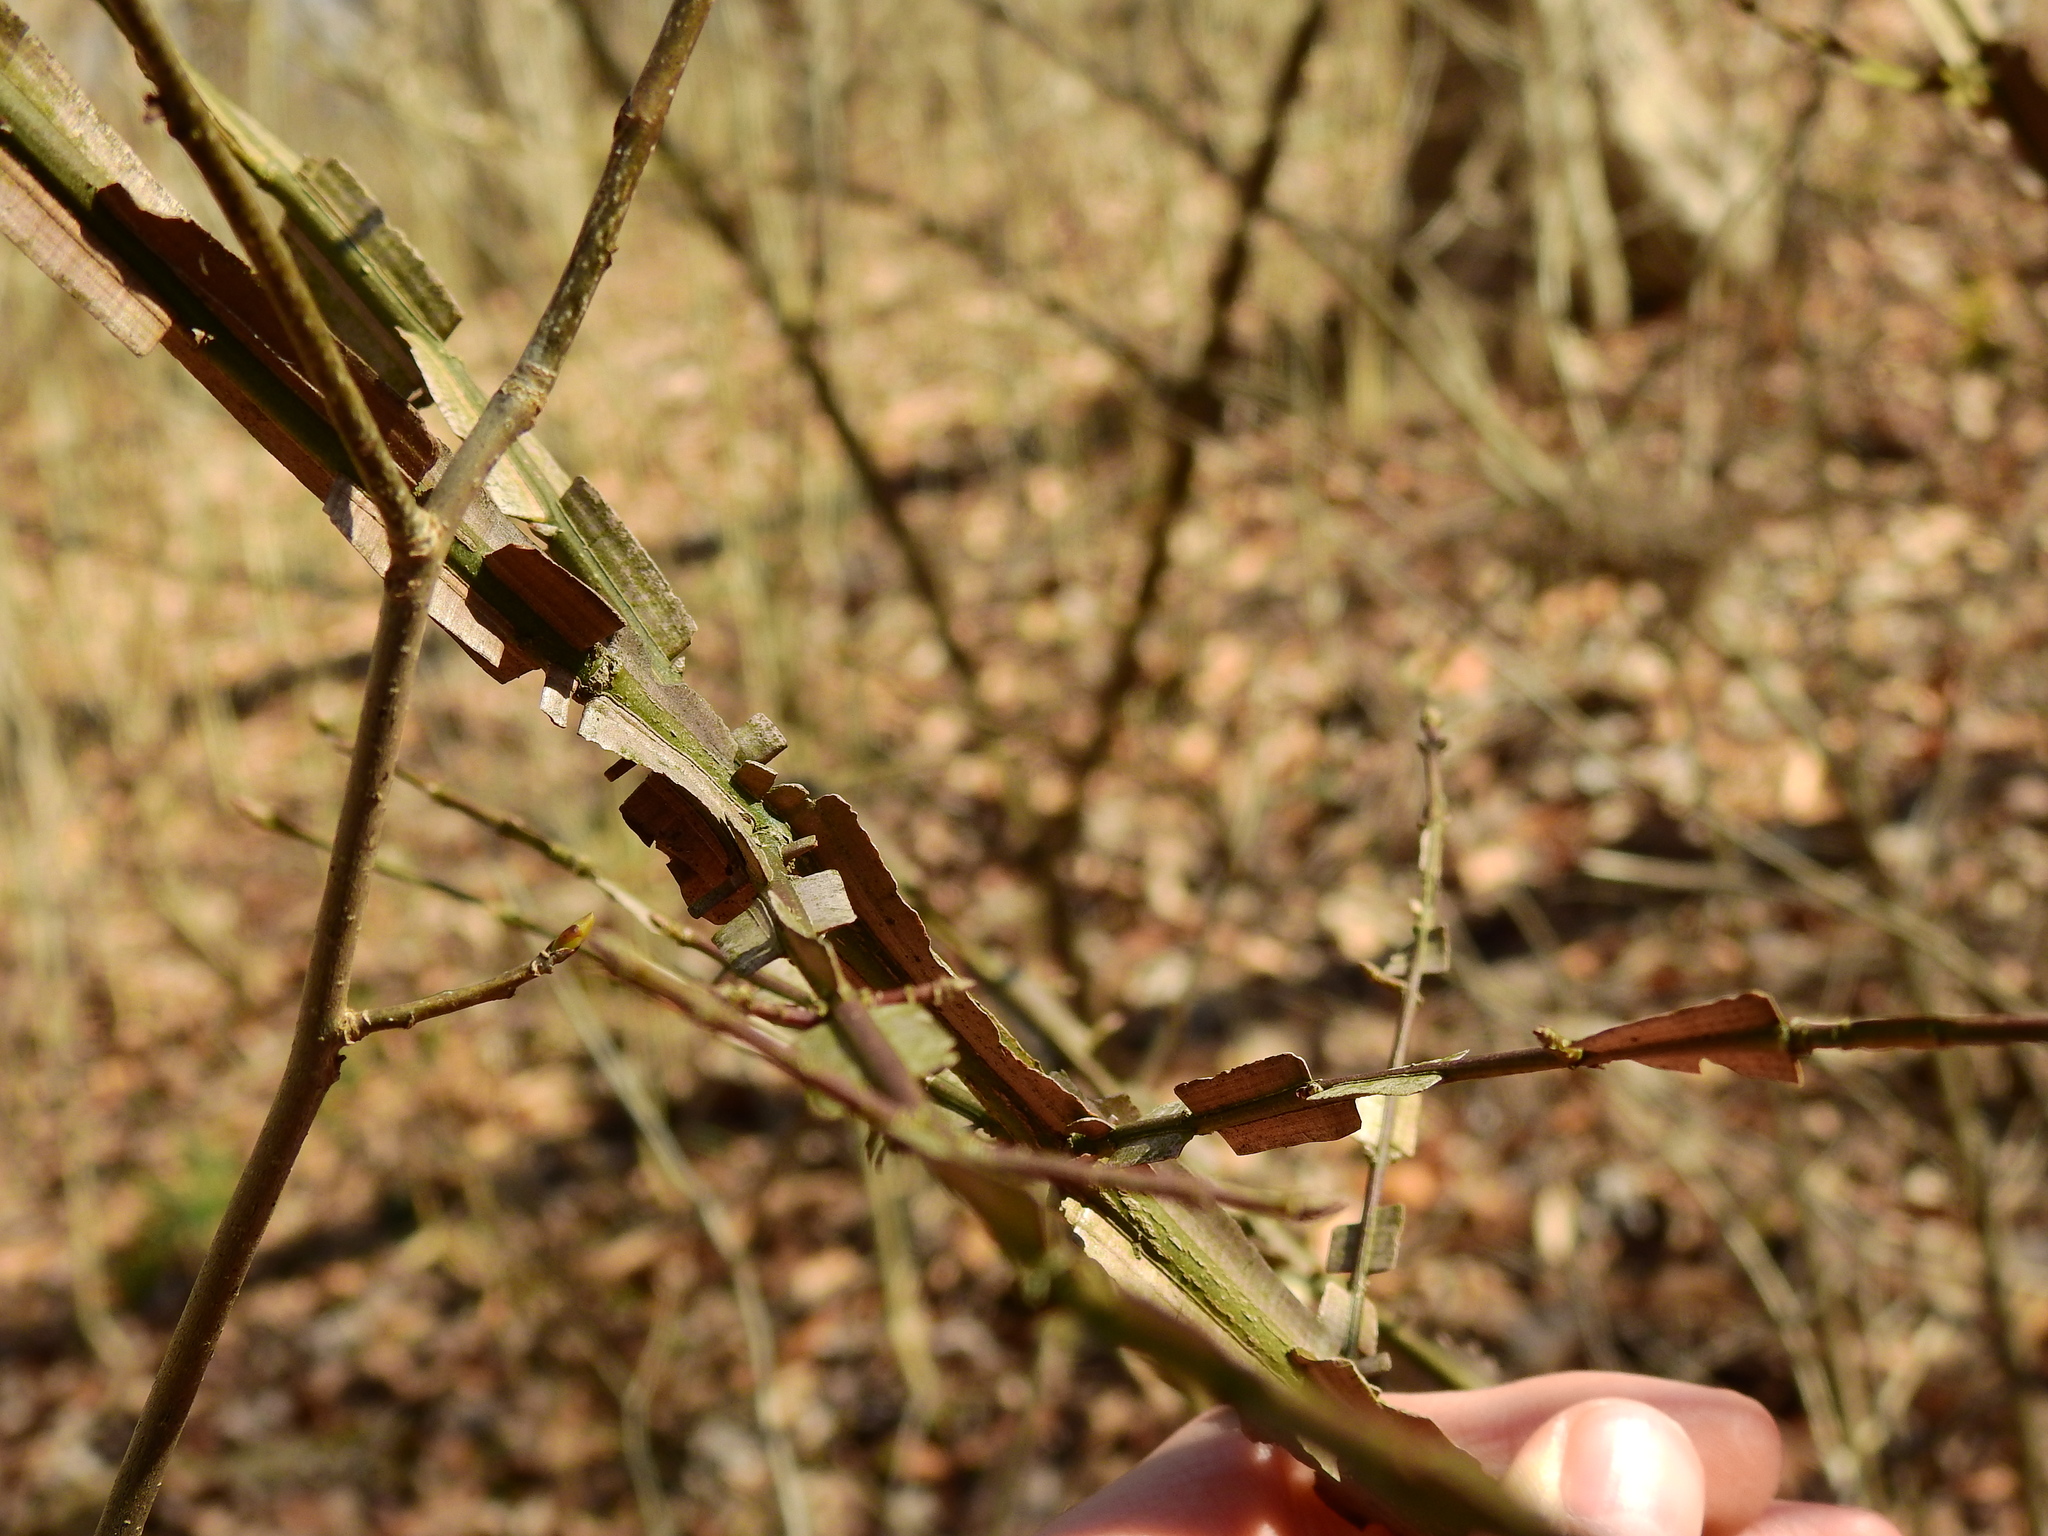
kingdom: Plantae
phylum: Tracheophyta
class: Magnoliopsida
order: Celastrales
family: Celastraceae
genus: Euonymus
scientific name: Euonymus alatus
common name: Winged euonymus
